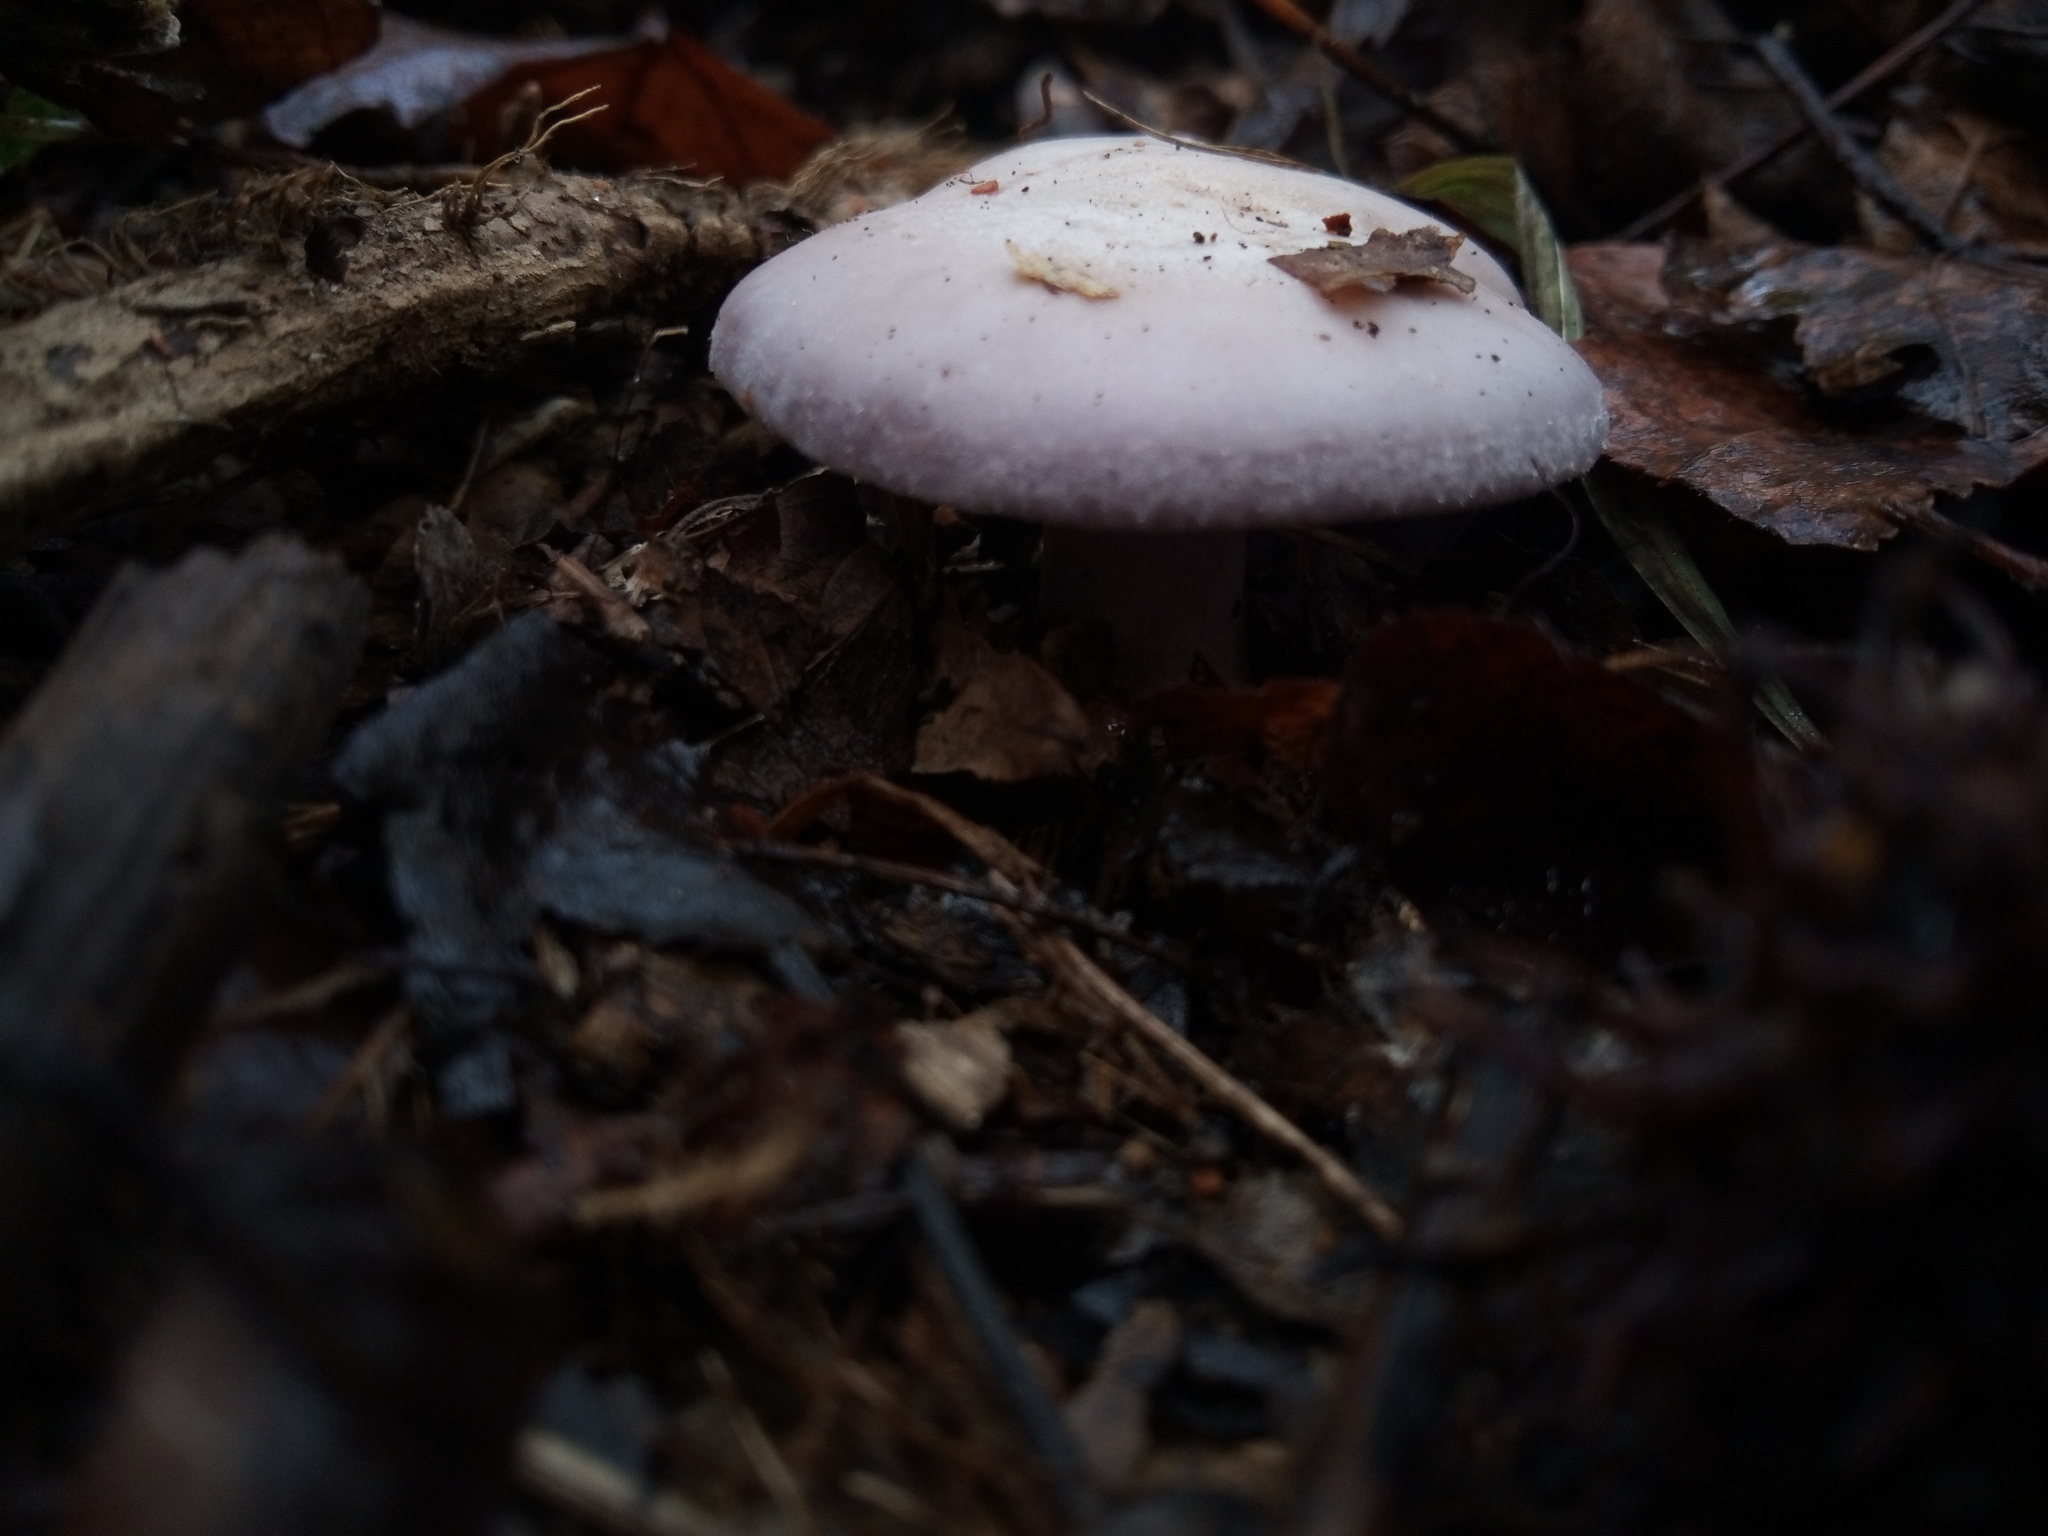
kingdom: Fungi
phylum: Basidiomycota
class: Agaricomycetes
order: Agaricales
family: Tricholomataceae
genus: Collybia
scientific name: Collybia
